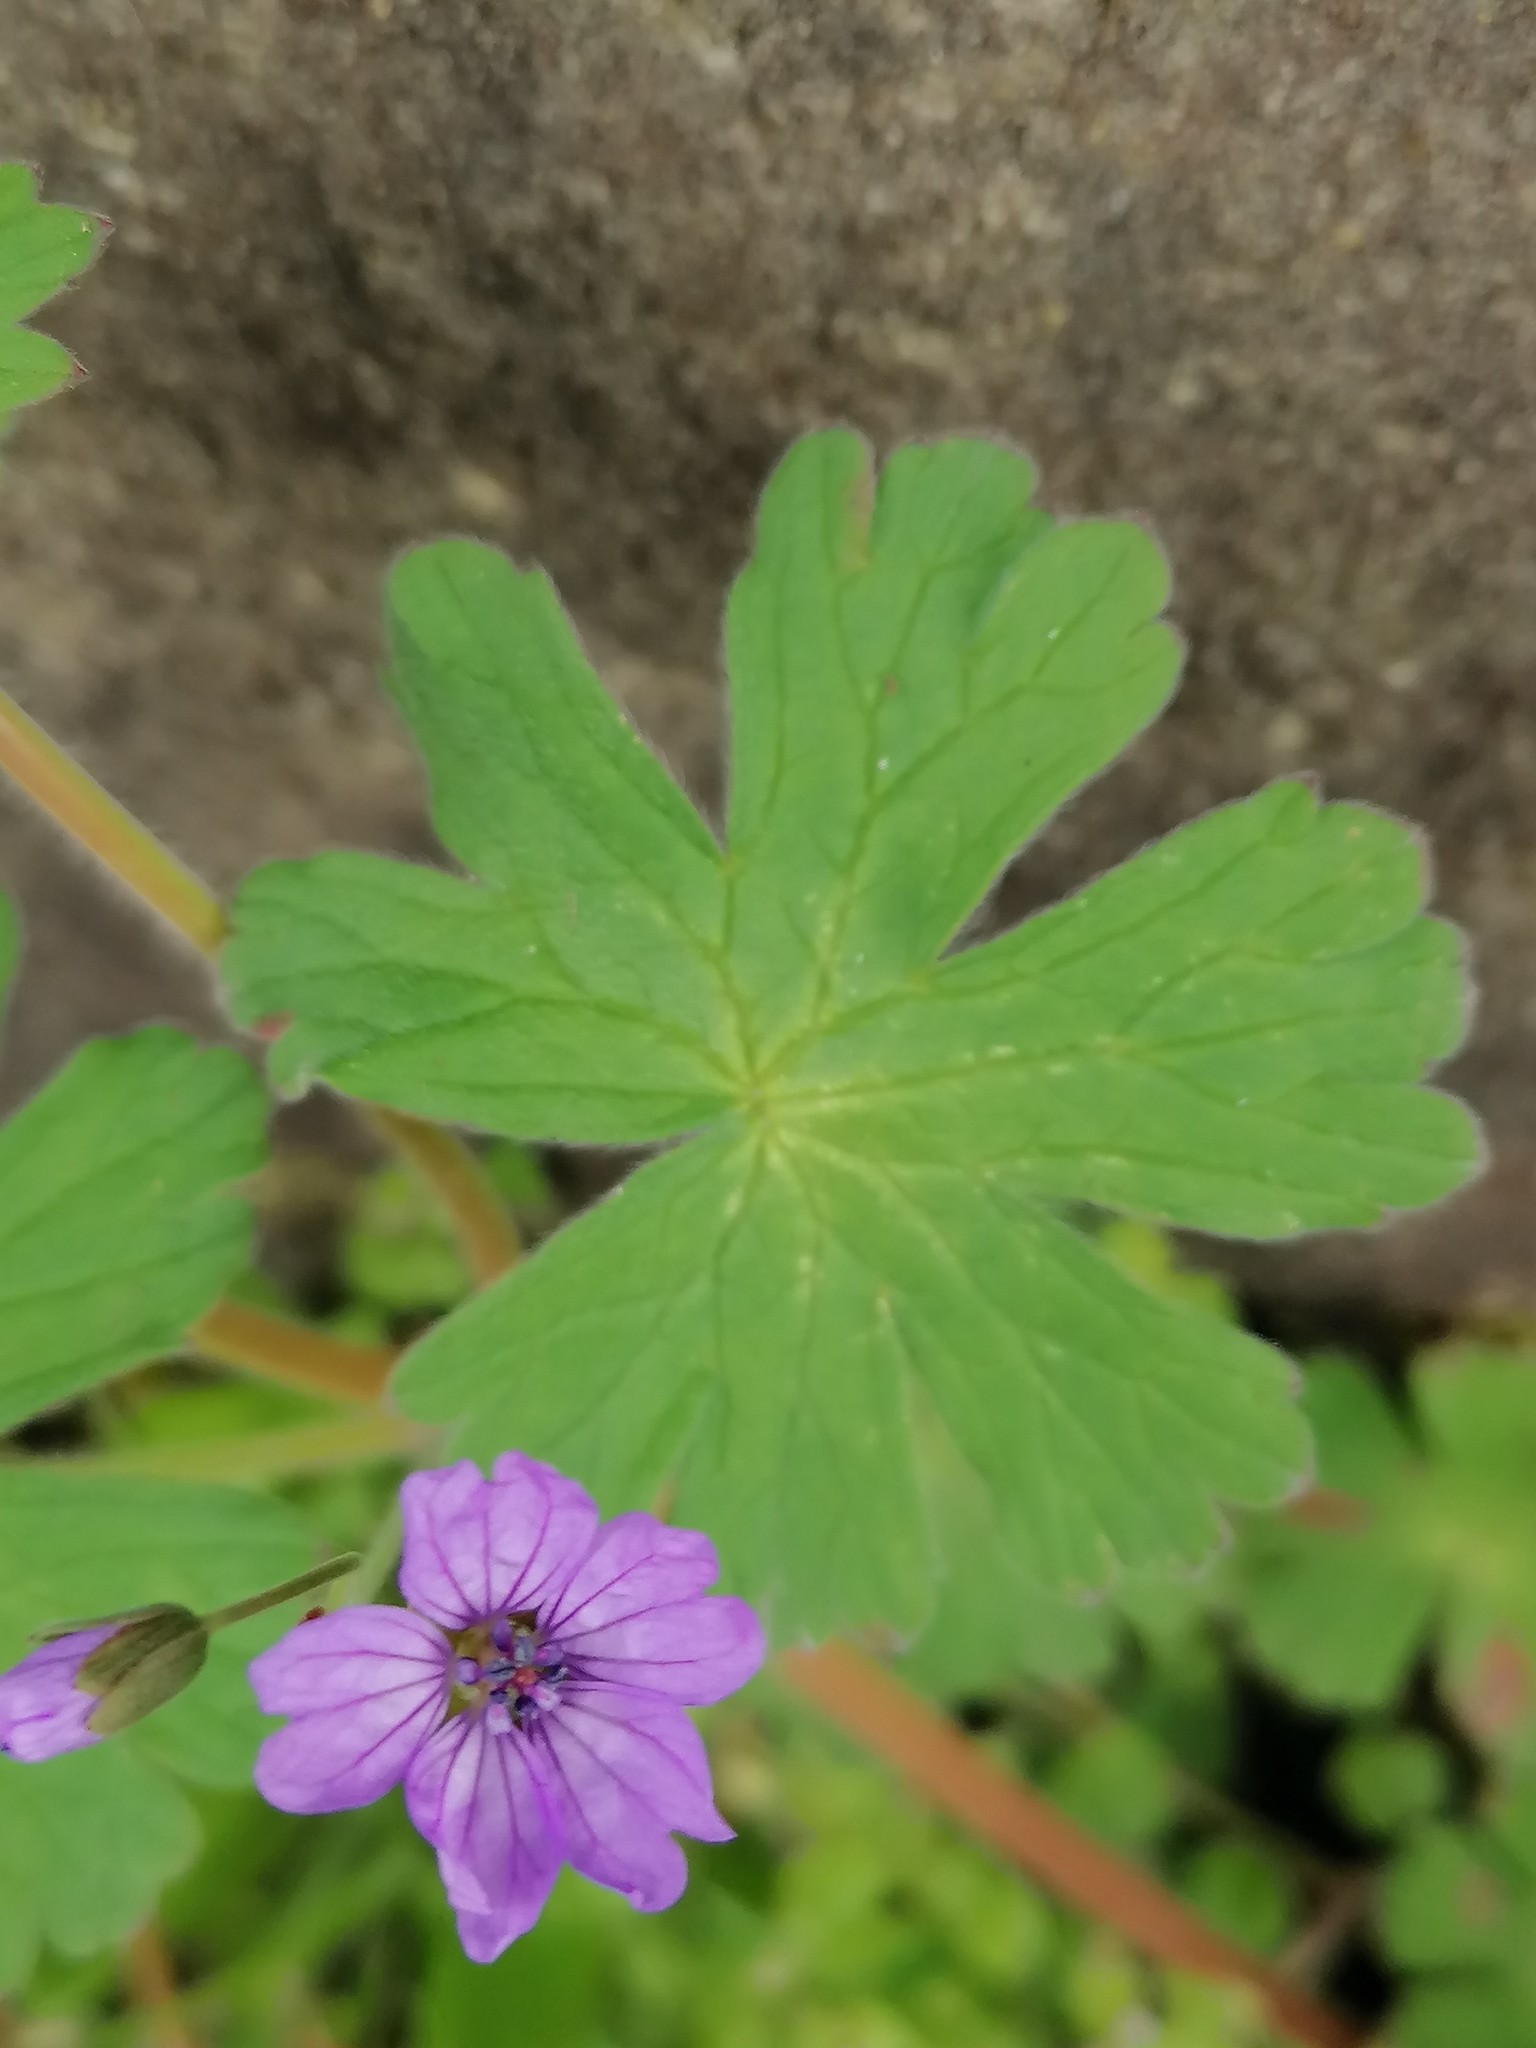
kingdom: Plantae
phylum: Tracheophyta
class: Magnoliopsida
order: Geraniales
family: Geraniaceae
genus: Geranium
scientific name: Geranium pyrenaicum
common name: Hedgerow crane's-bill
